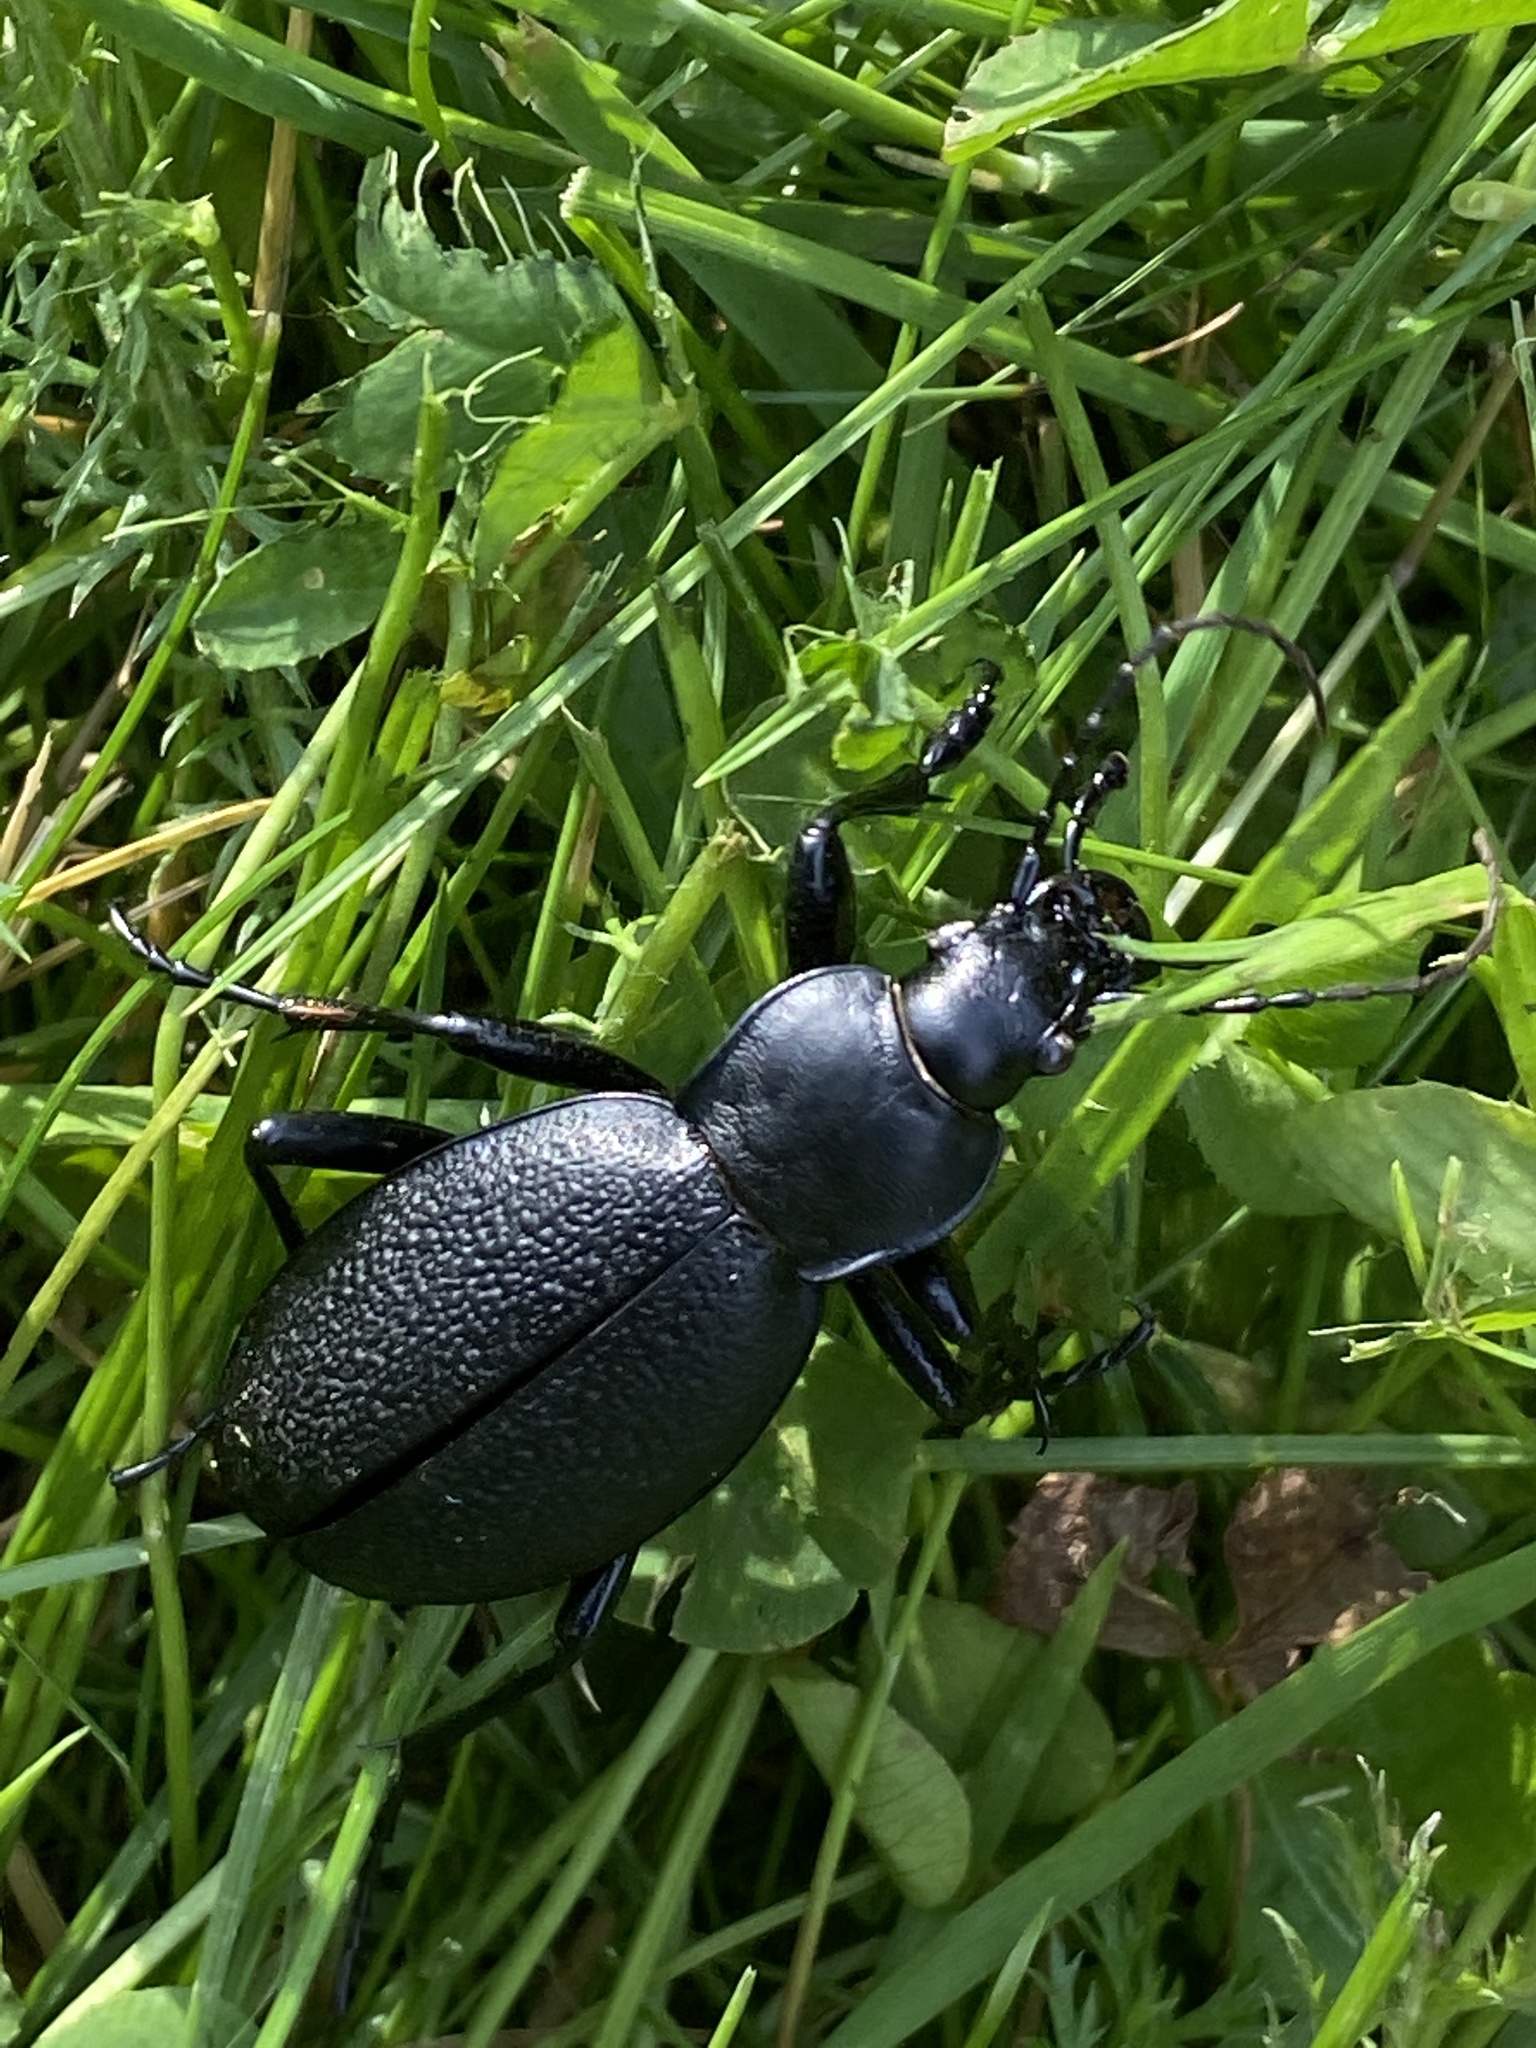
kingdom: Animalia
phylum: Arthropoda
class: Insecta
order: Coleoptera
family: Carabidae
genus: Carabus
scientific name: Carabus coriaceus
